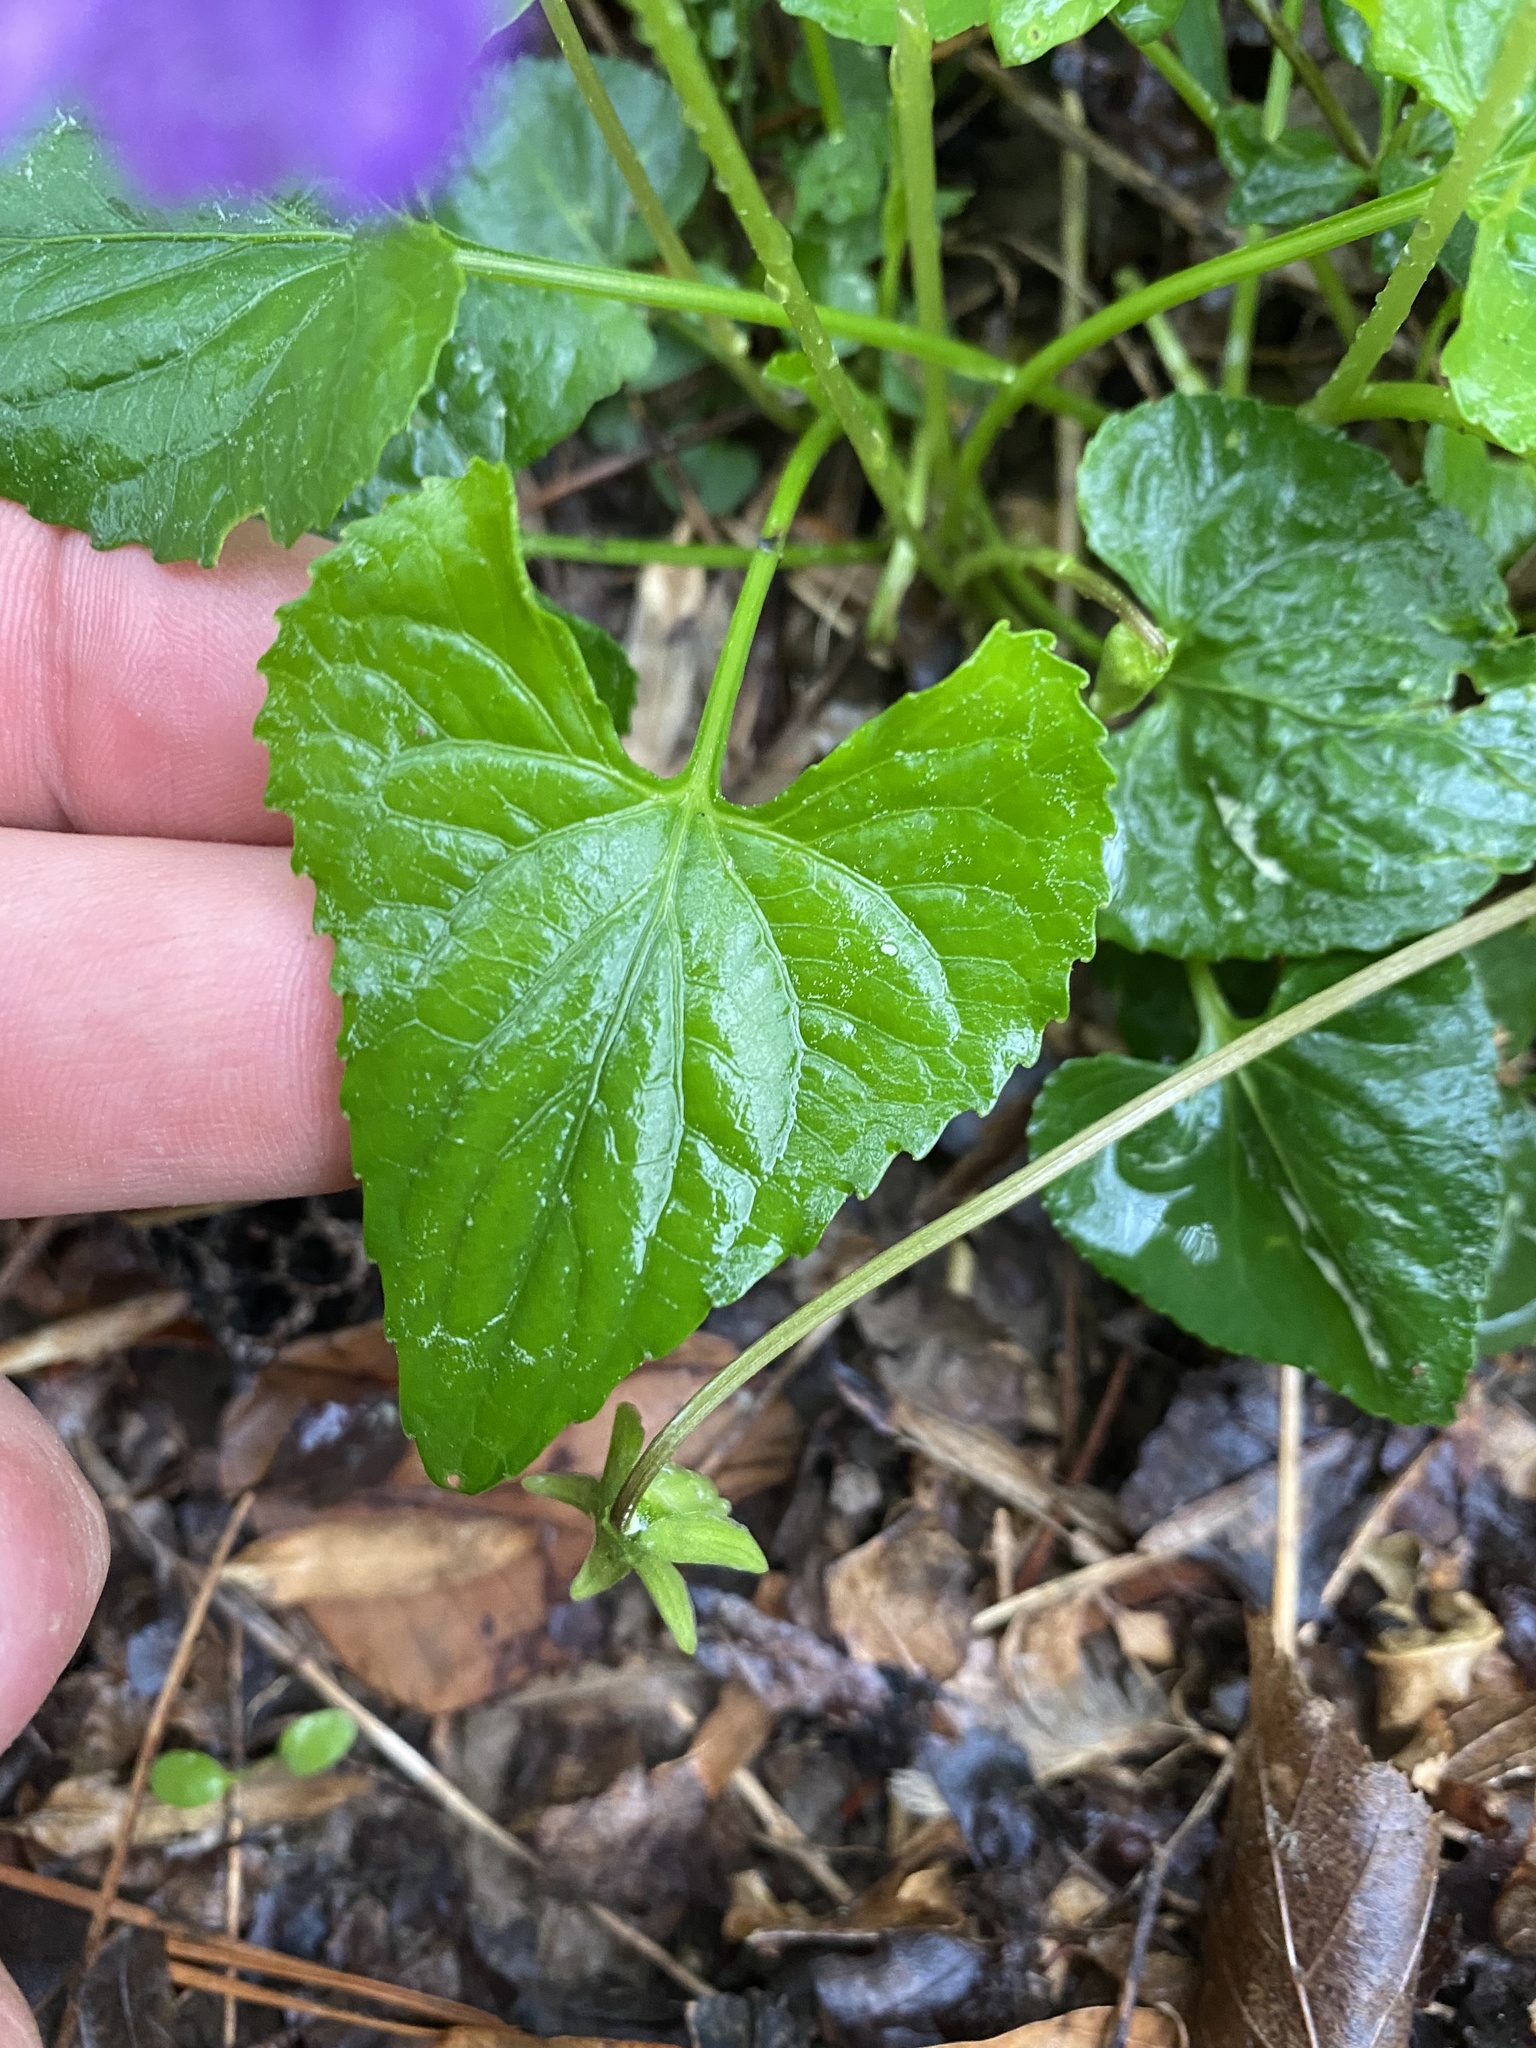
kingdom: Plantae
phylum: Tracheophyta
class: Magnoliopsida
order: Malpighiales
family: Violaceae
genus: Viola
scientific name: Viola sororia
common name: Dooryard violet
